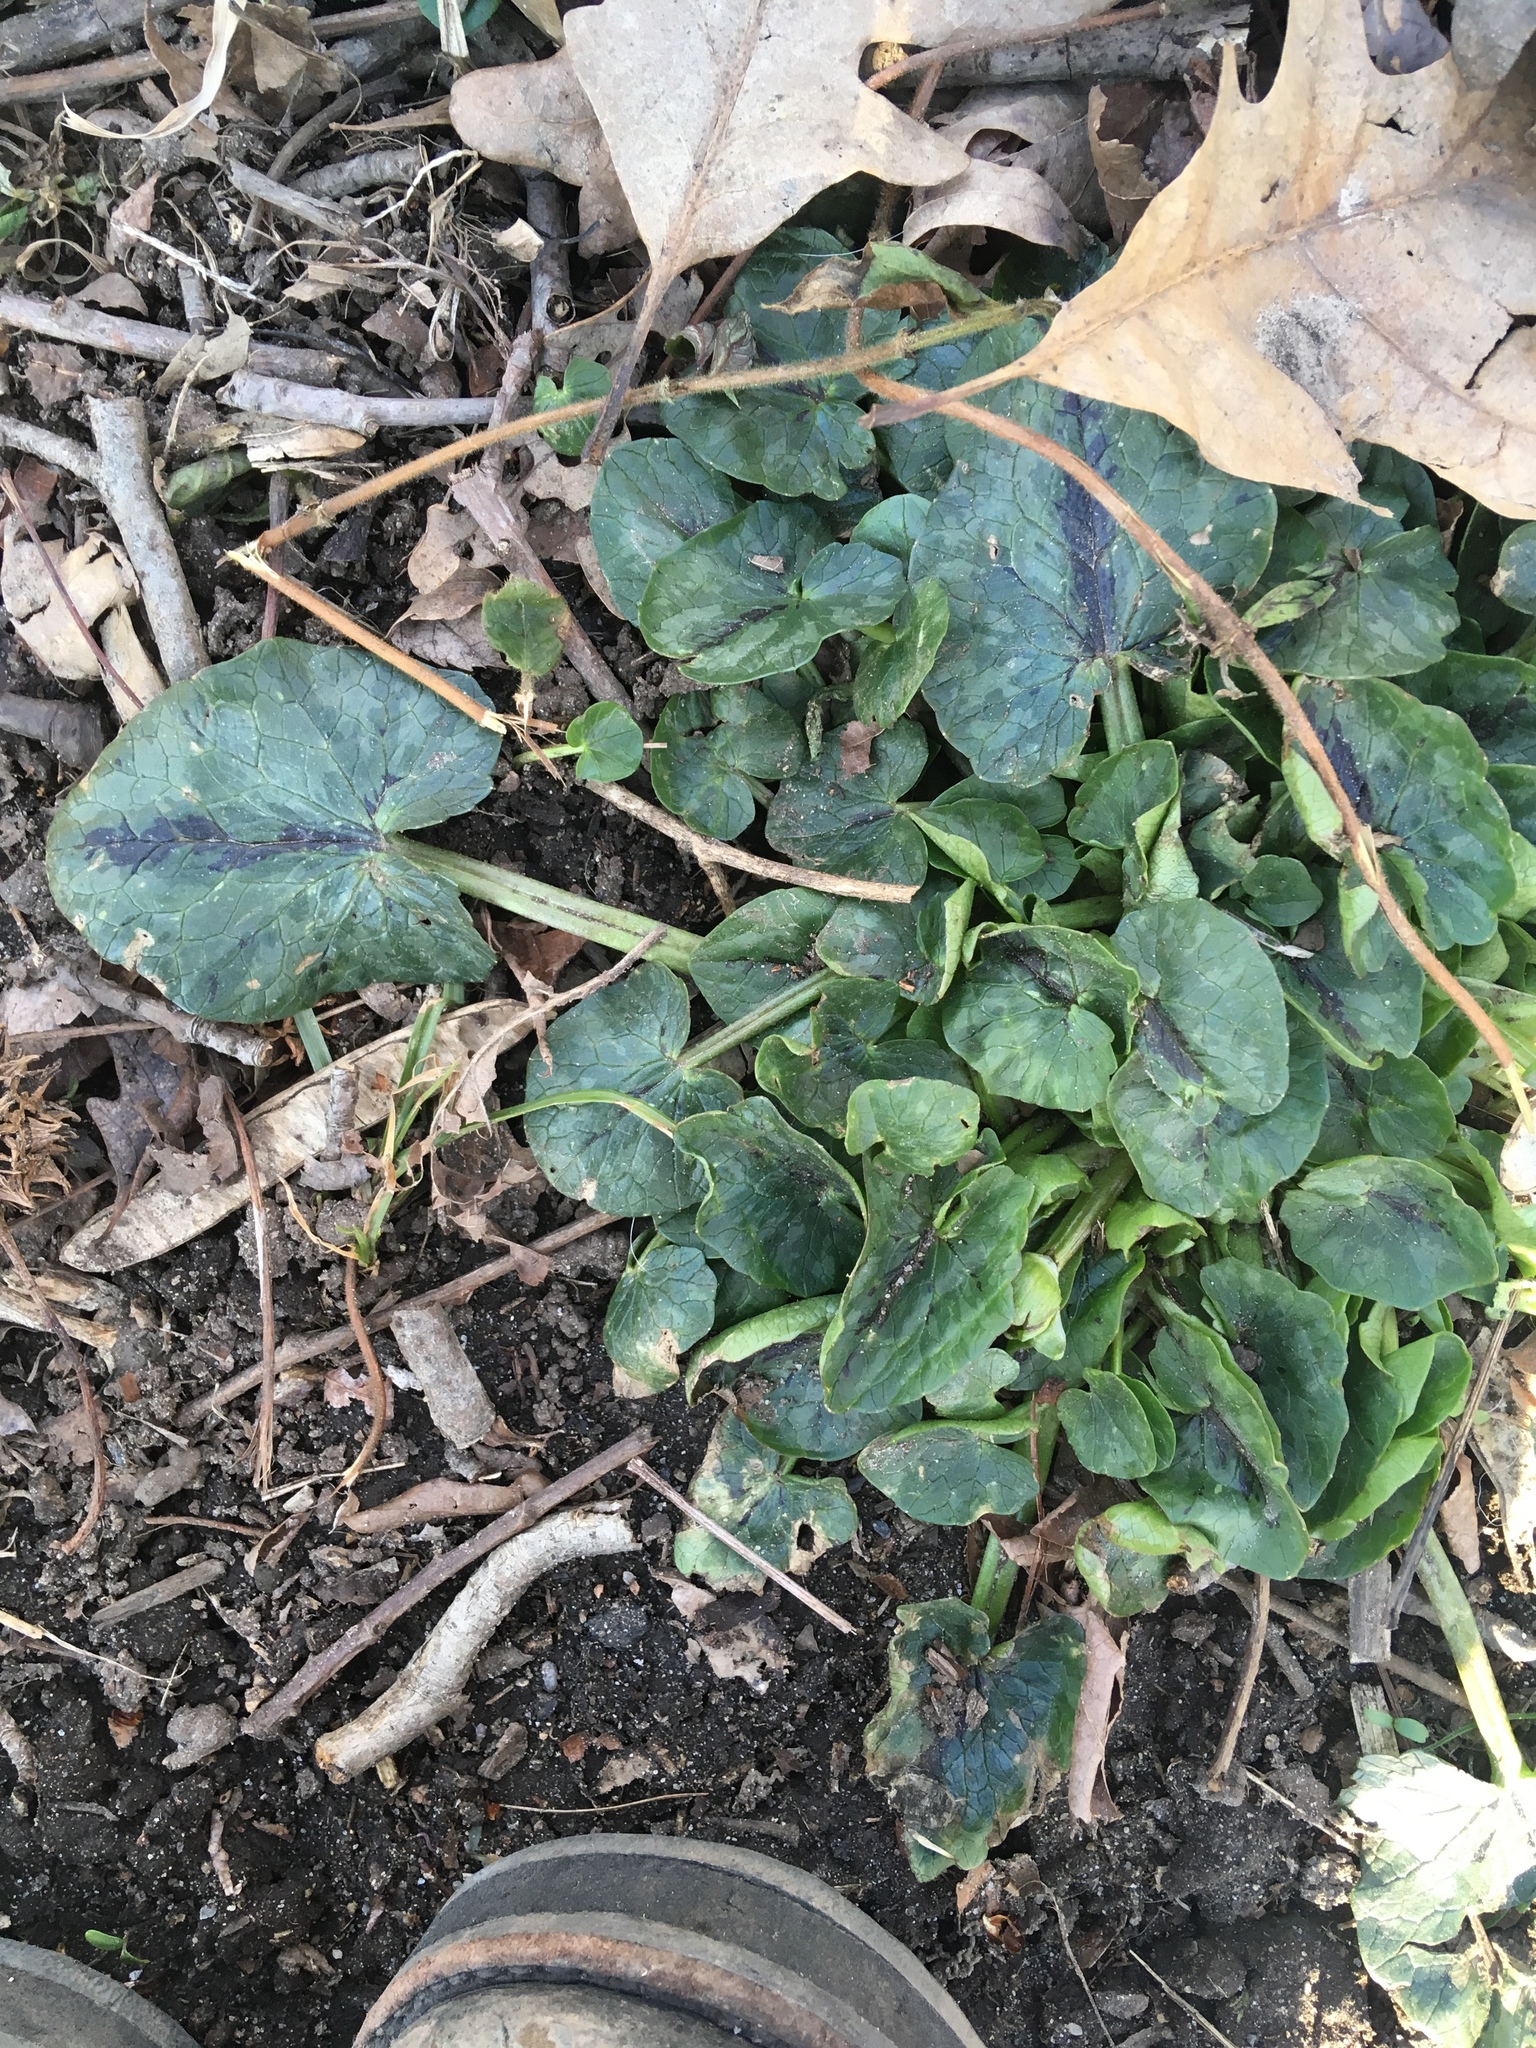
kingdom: Plantae
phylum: Tracheophyta
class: Magnoliopsida
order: Ranunculales
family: Ranunculaceae
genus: Ficaria
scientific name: Ficaria verna
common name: Lesser celandine
